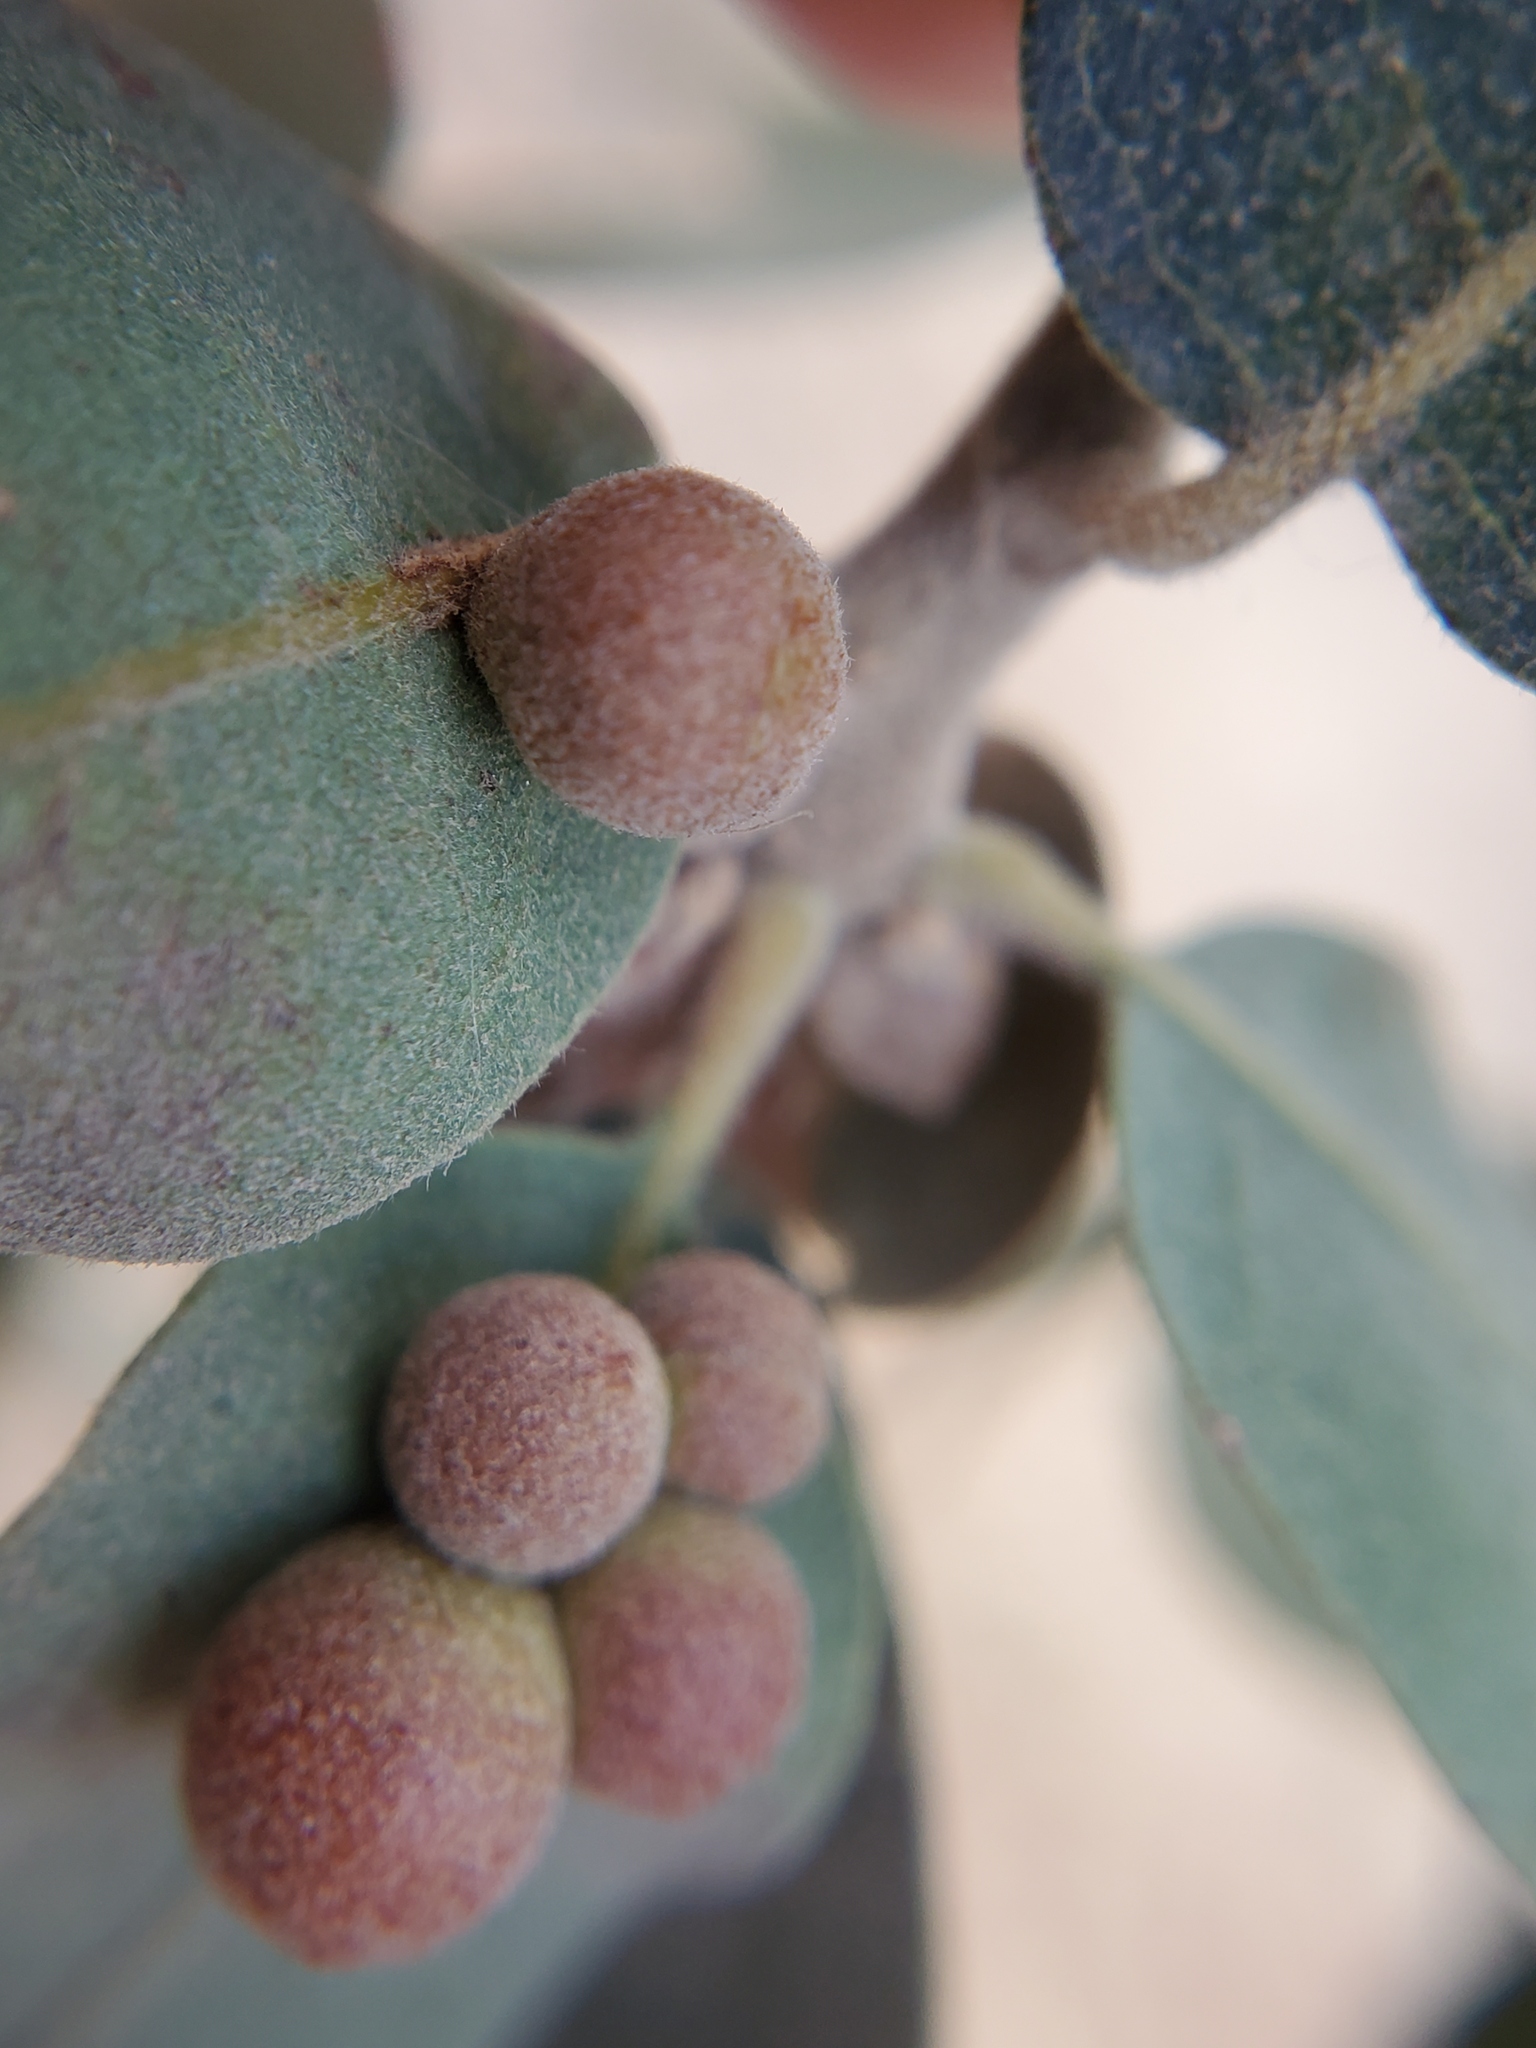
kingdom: Animalia
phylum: Arthropoda
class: Insecta
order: Hymenoptera
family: Cynipidae
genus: Andricus
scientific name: Andricus
